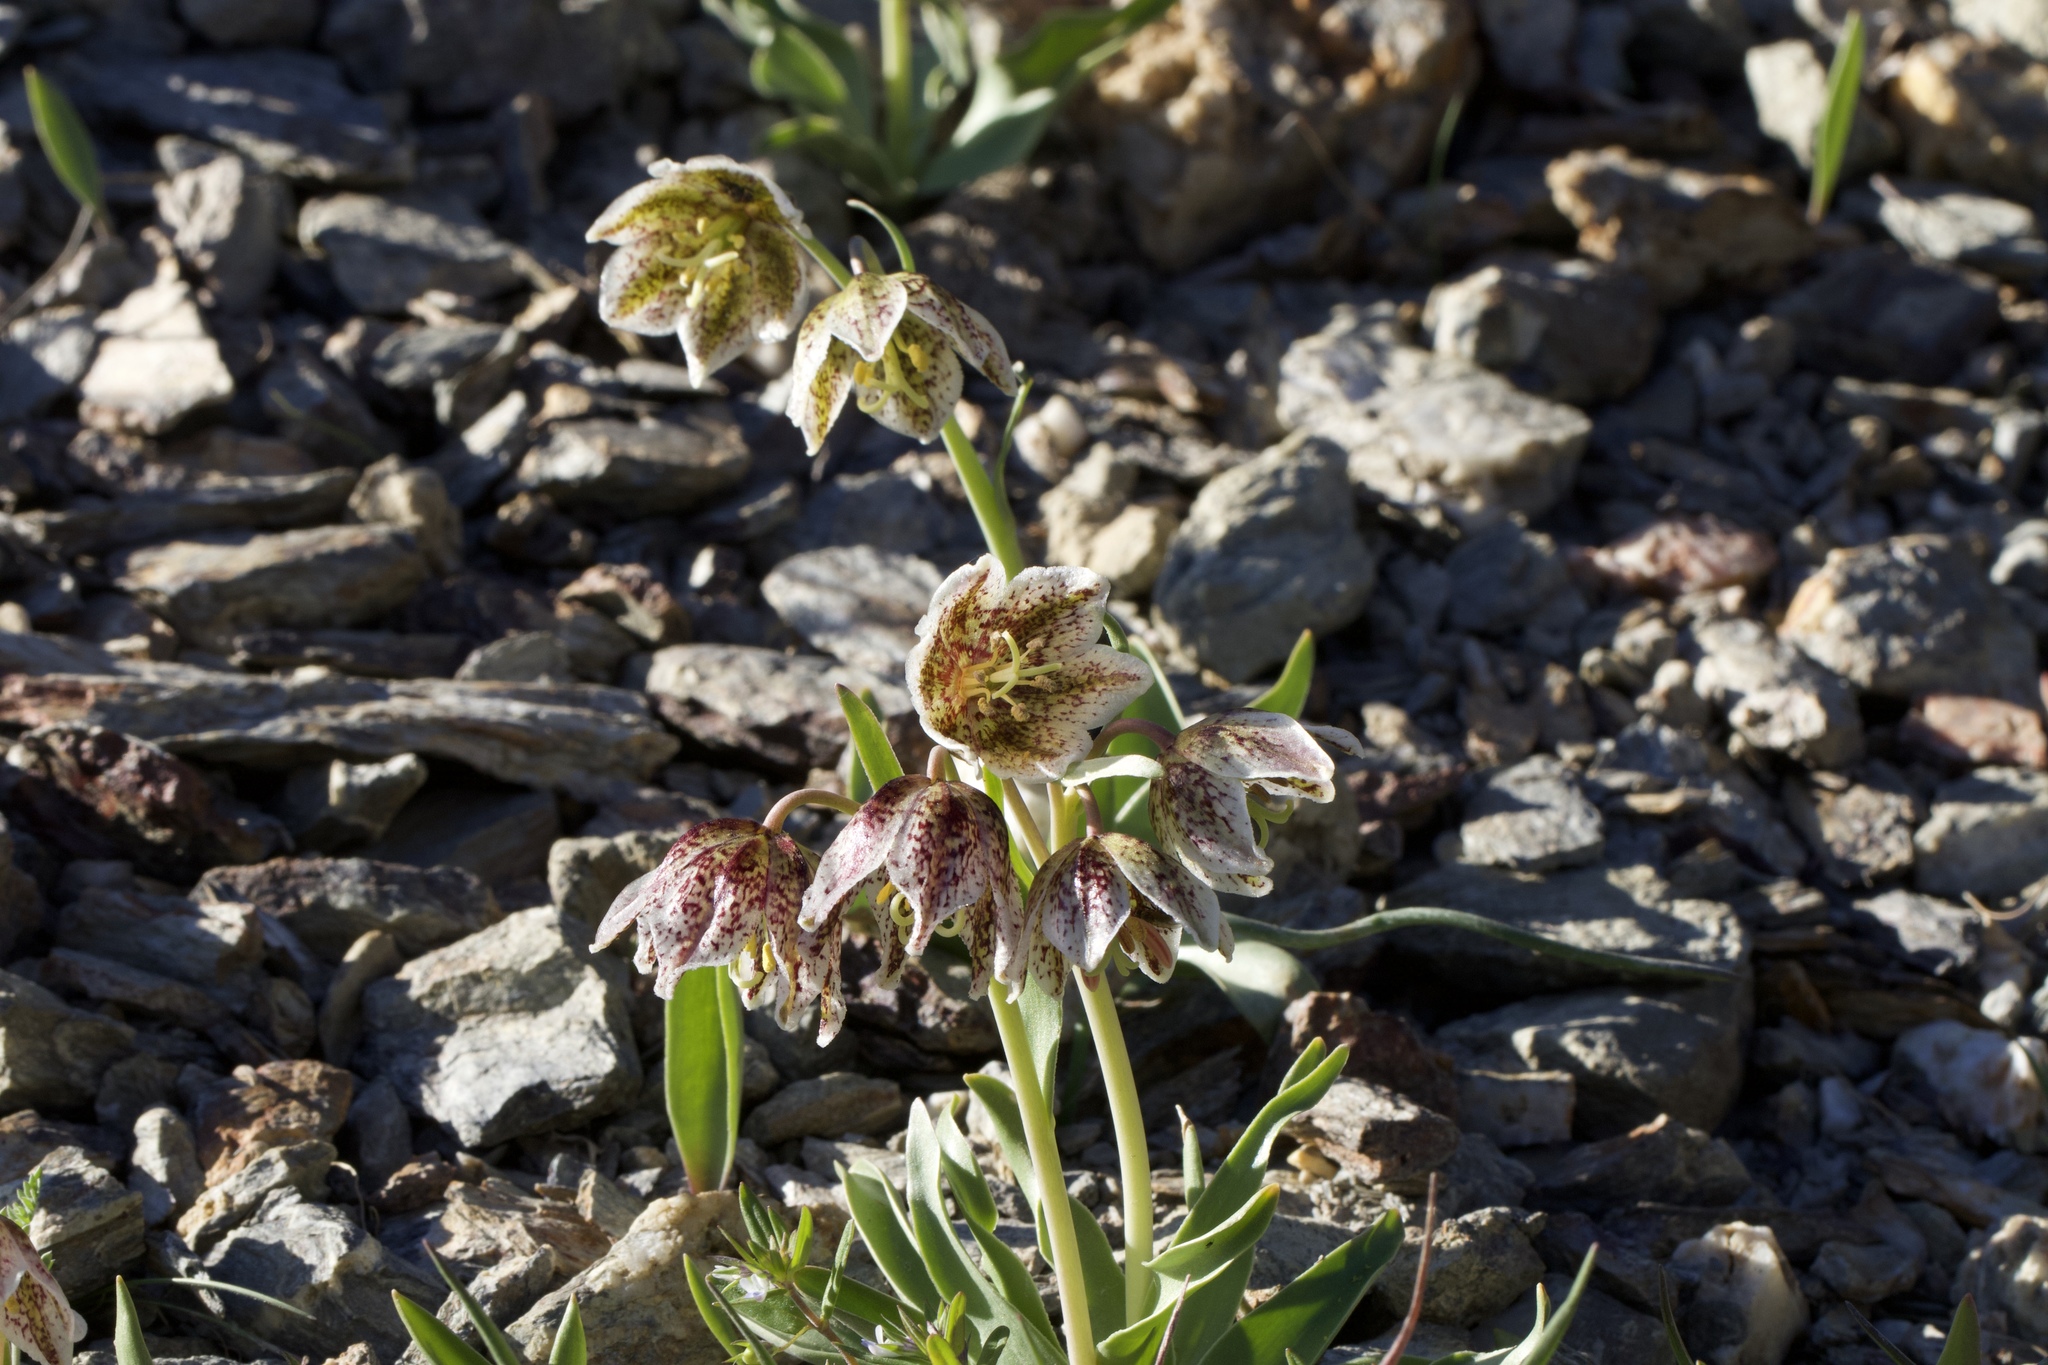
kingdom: Plantae
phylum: Tracheophyta
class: Liliopsida
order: Liliales
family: Liliaceae
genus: Fritillaria
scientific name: Fritillaria purdyi
